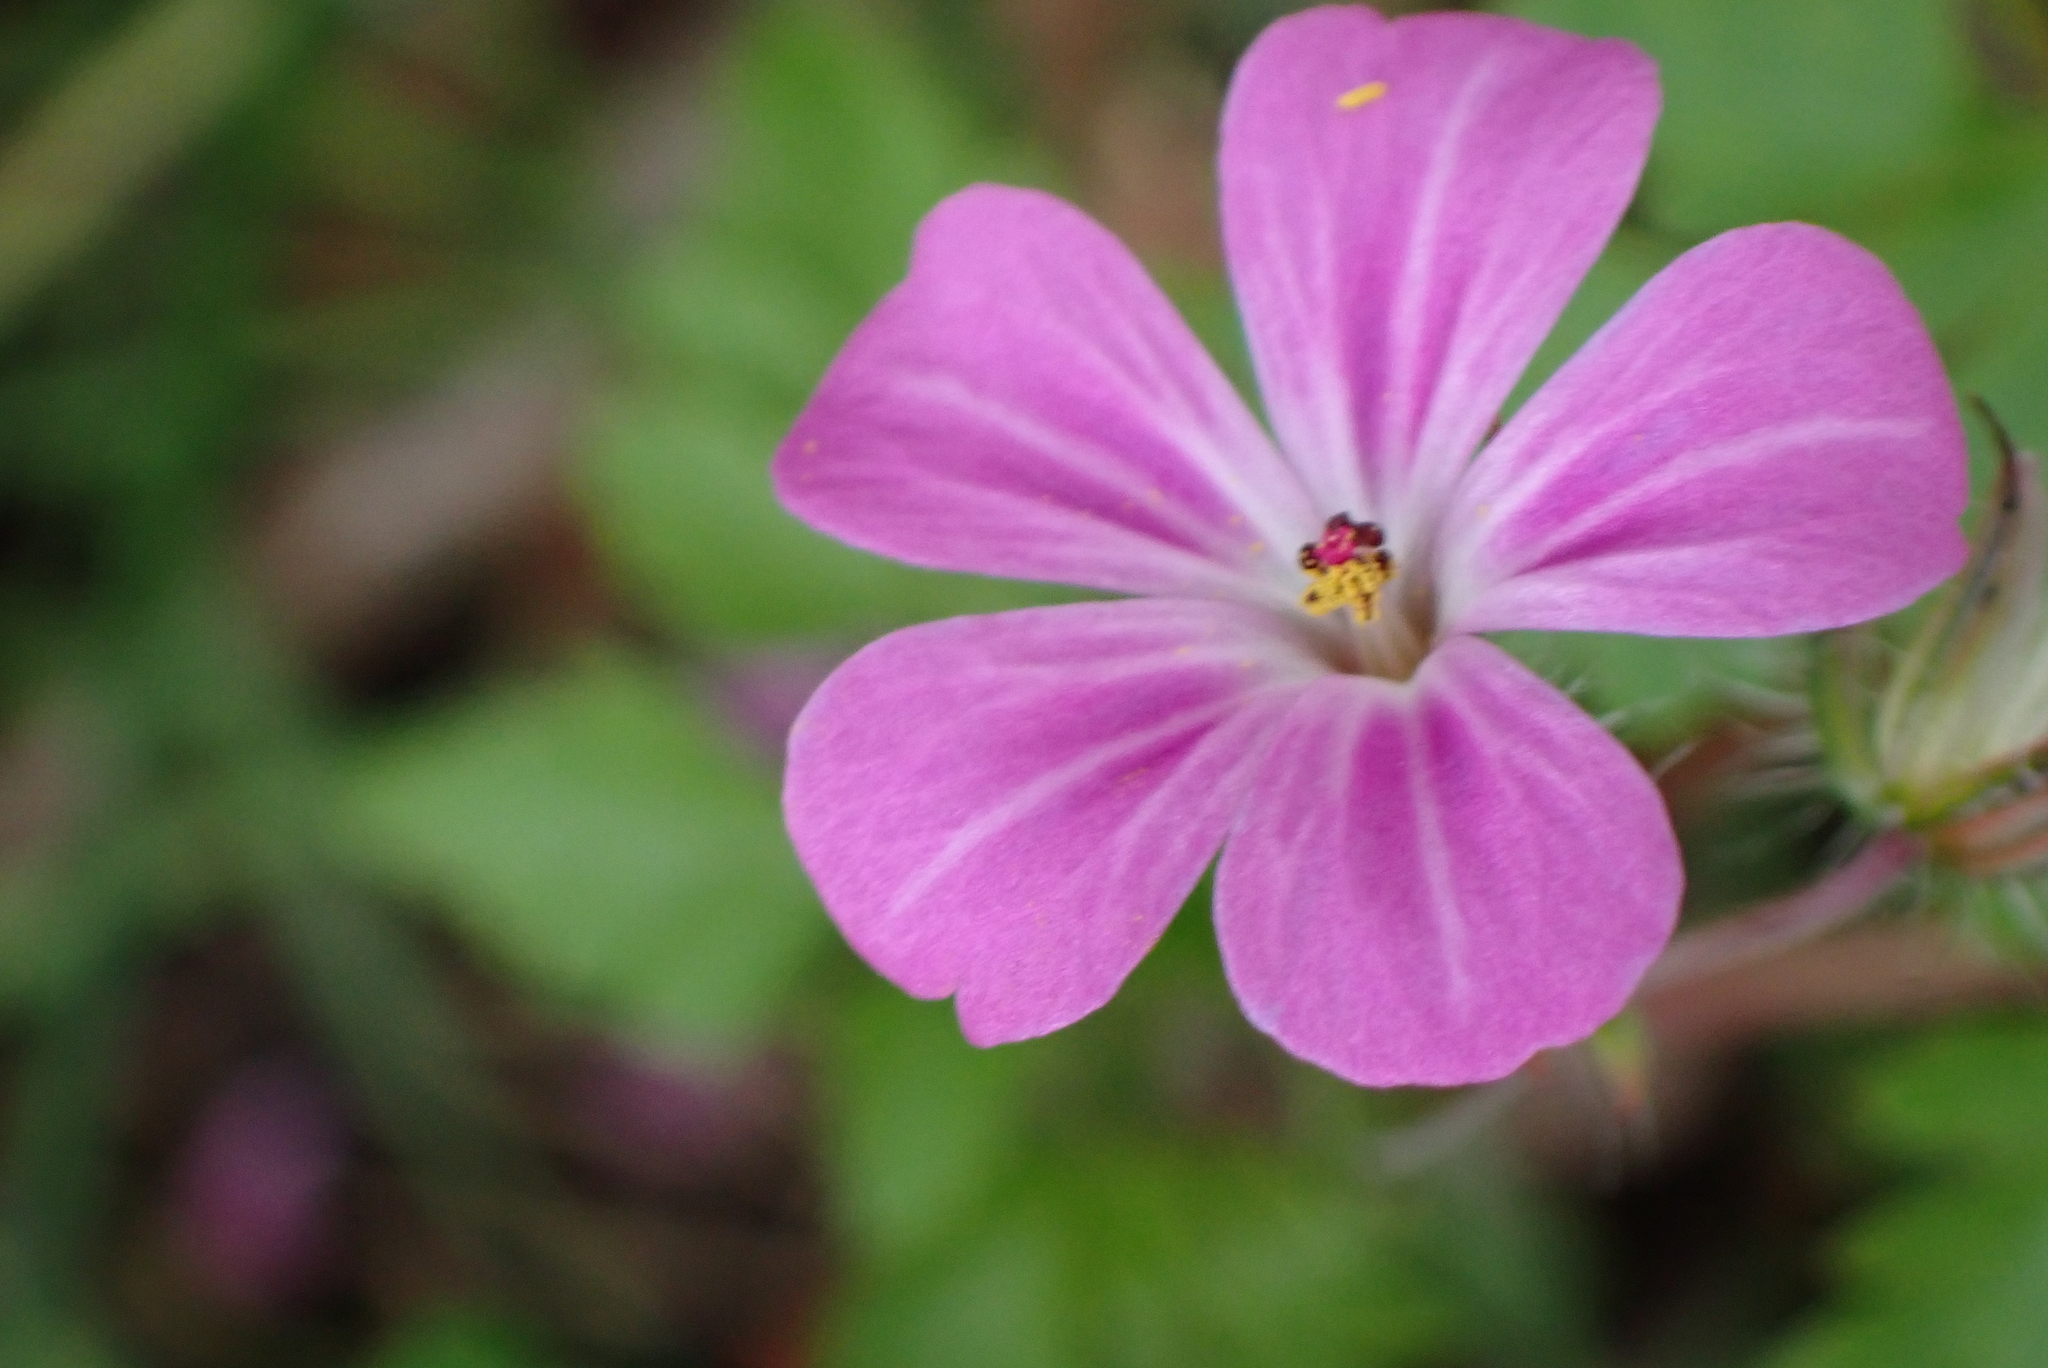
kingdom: Plantae
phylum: Tracheophyta
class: Magnoliopsida
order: Geraniales
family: Geraniaceae
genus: Geranium
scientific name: Geranium robertianum
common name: Herb-robert
